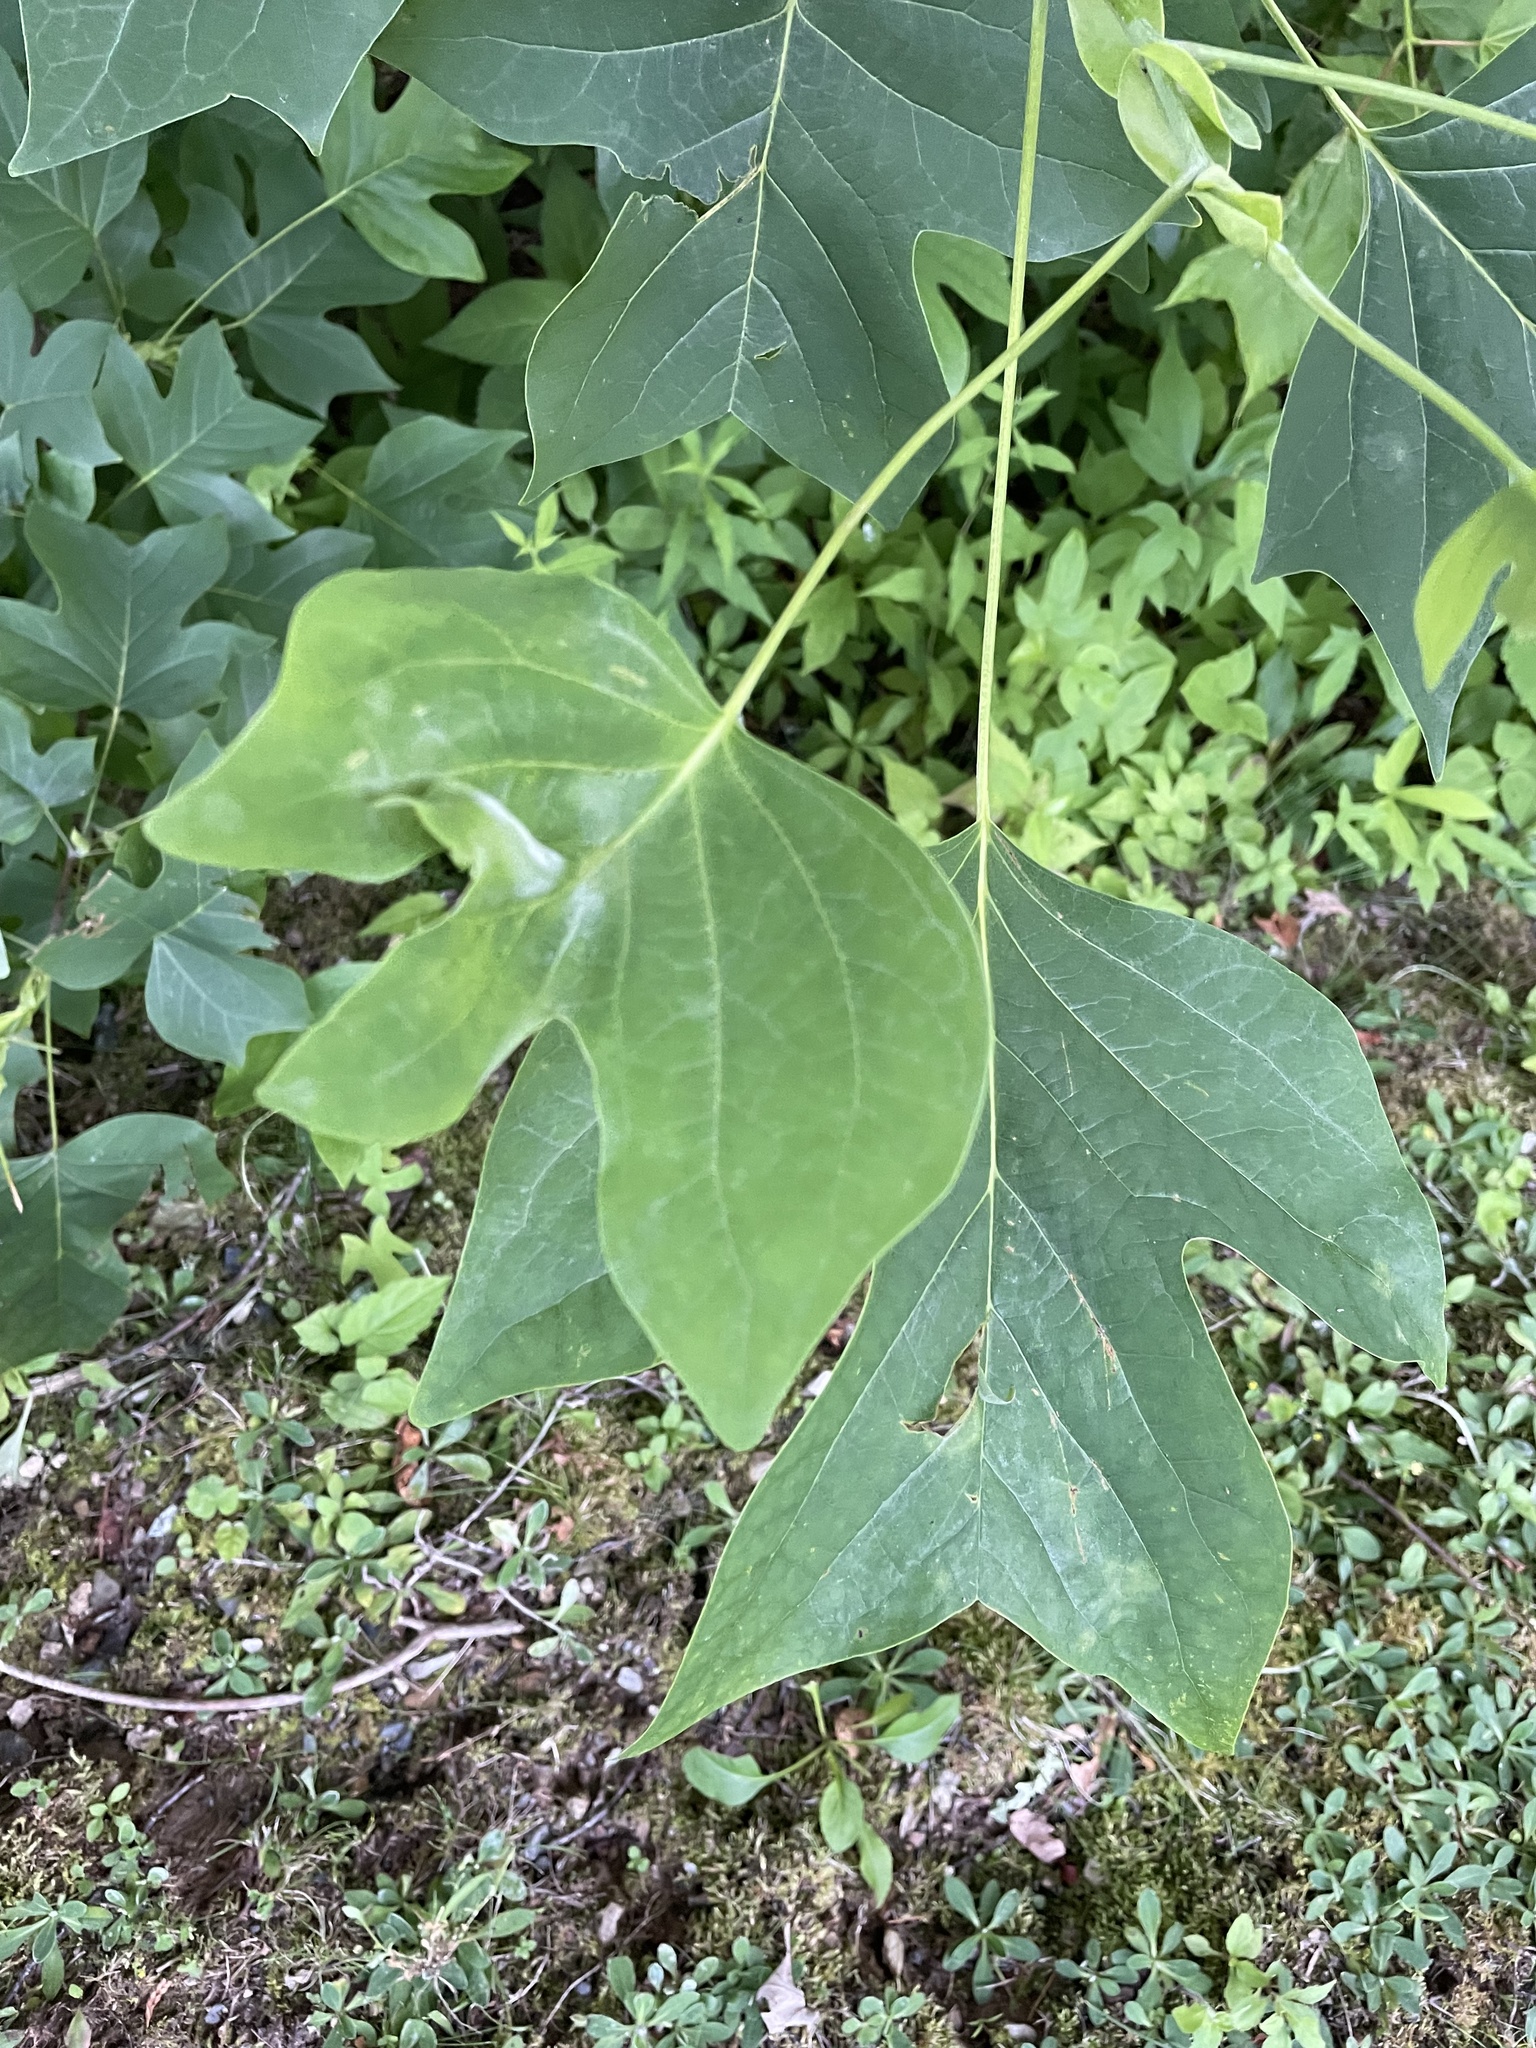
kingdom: Plantae
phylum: Tracheophyta
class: Magnoliopsida
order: Magnoliales
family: Magnoliaceae
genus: Liriodendron
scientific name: Liriodendron tulipifera
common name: Tulip tree
